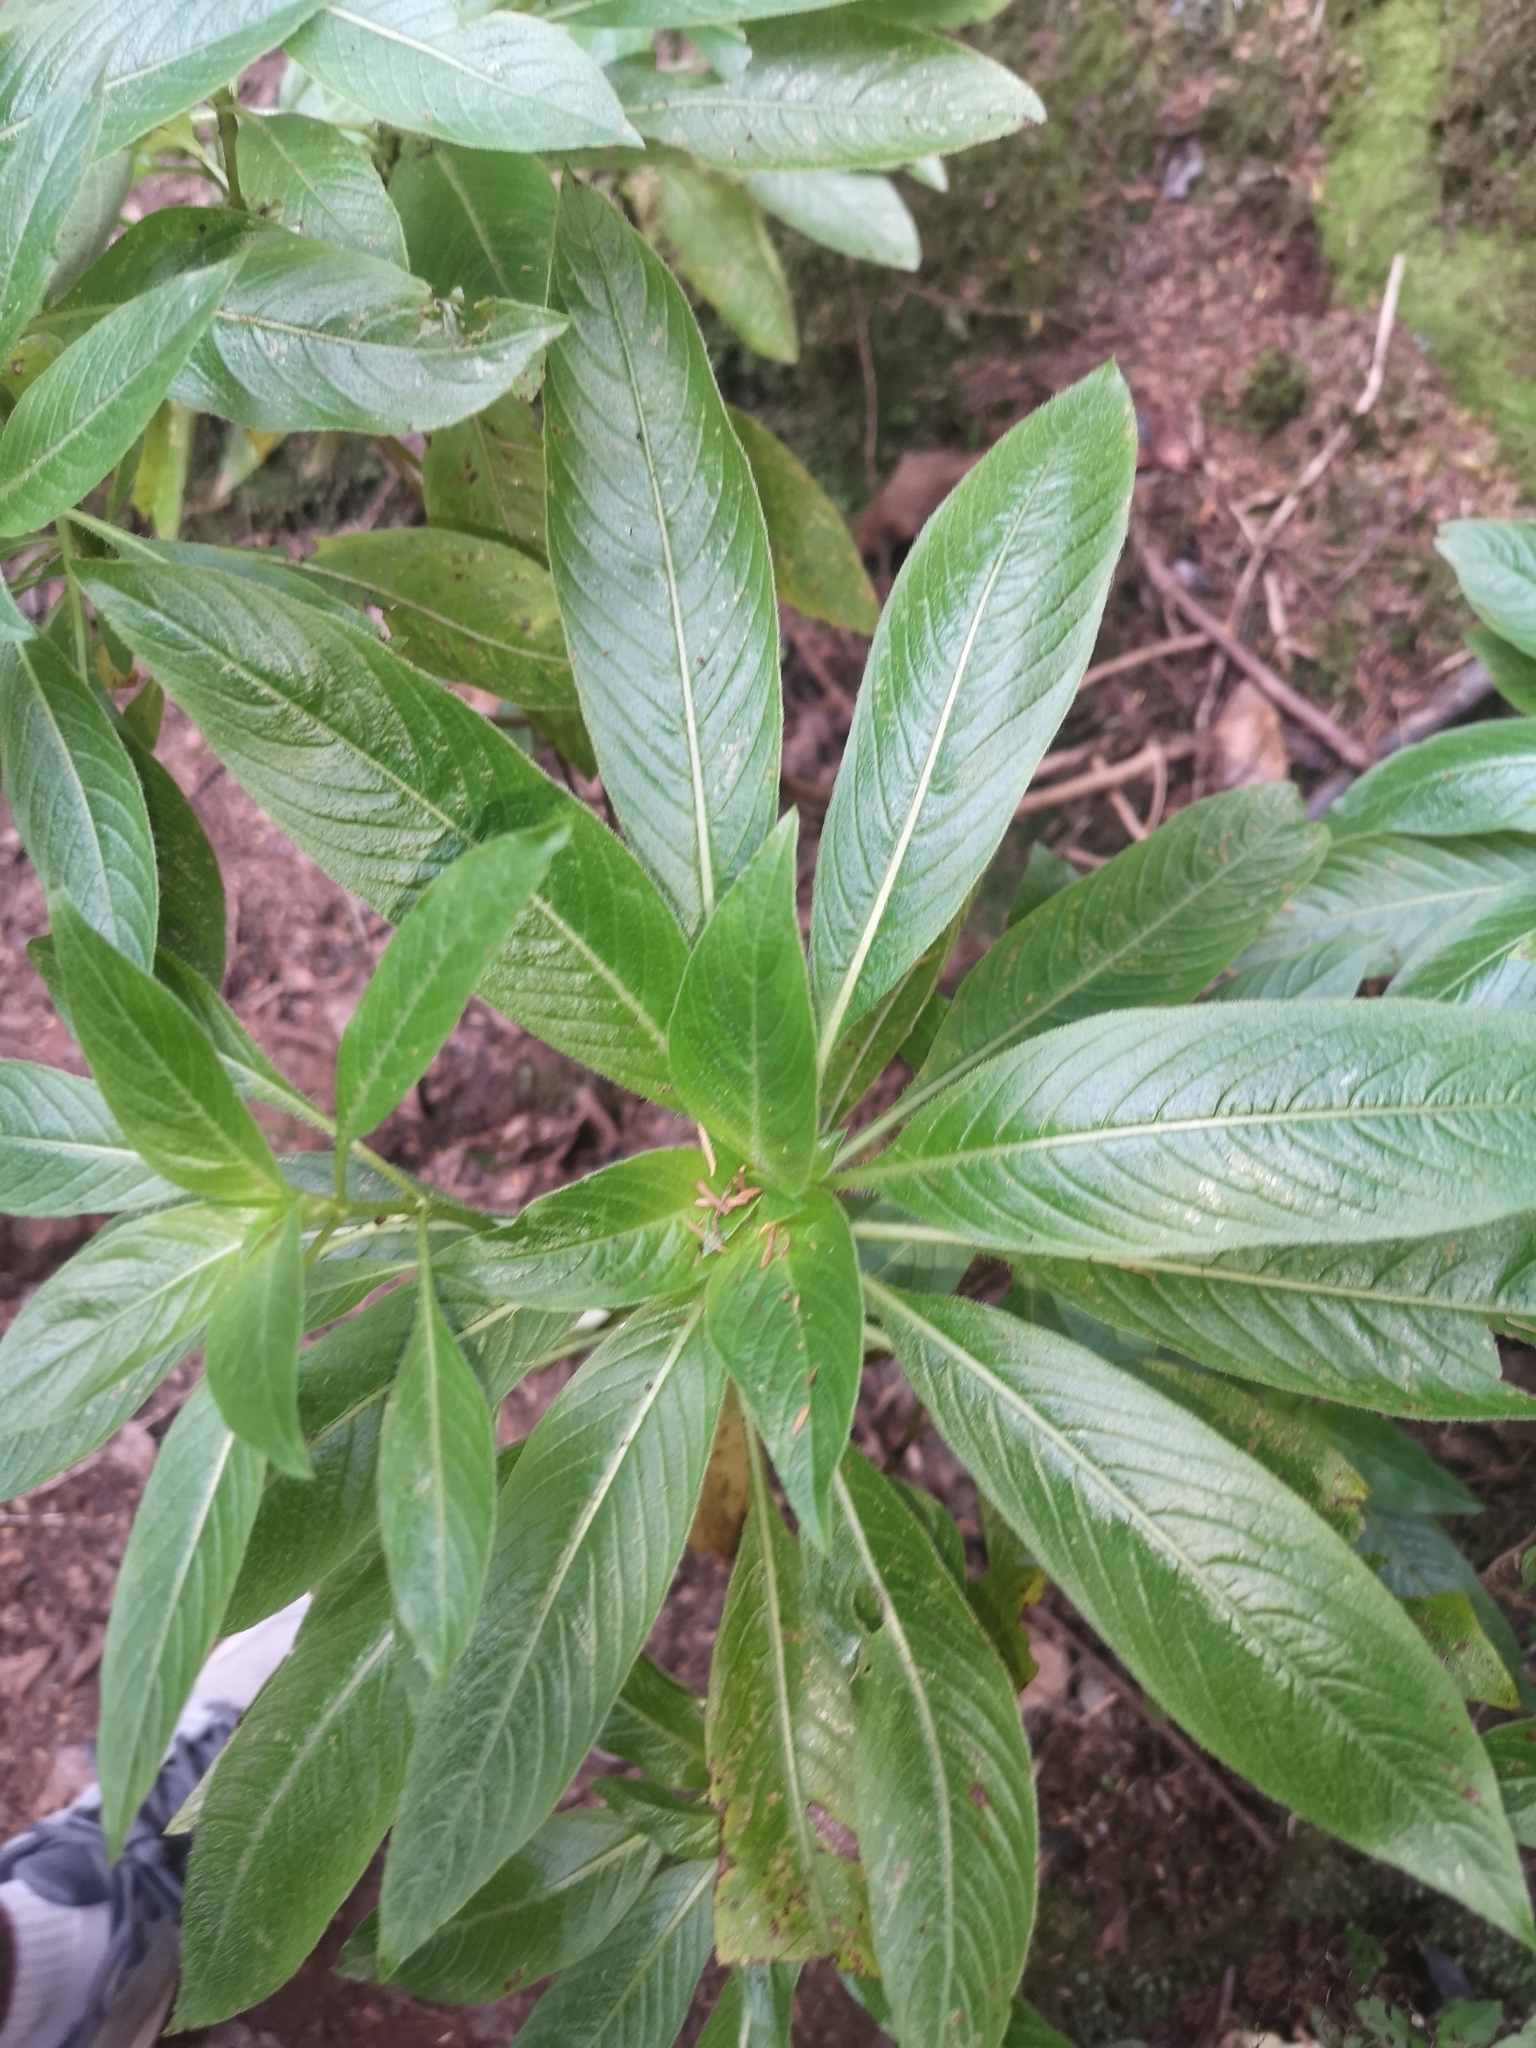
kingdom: Plantae
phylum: Tracheophyta
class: Magnoliopsida
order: Gentianales
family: Rubiaceae
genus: Phyllis
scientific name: Phyllis nobla
